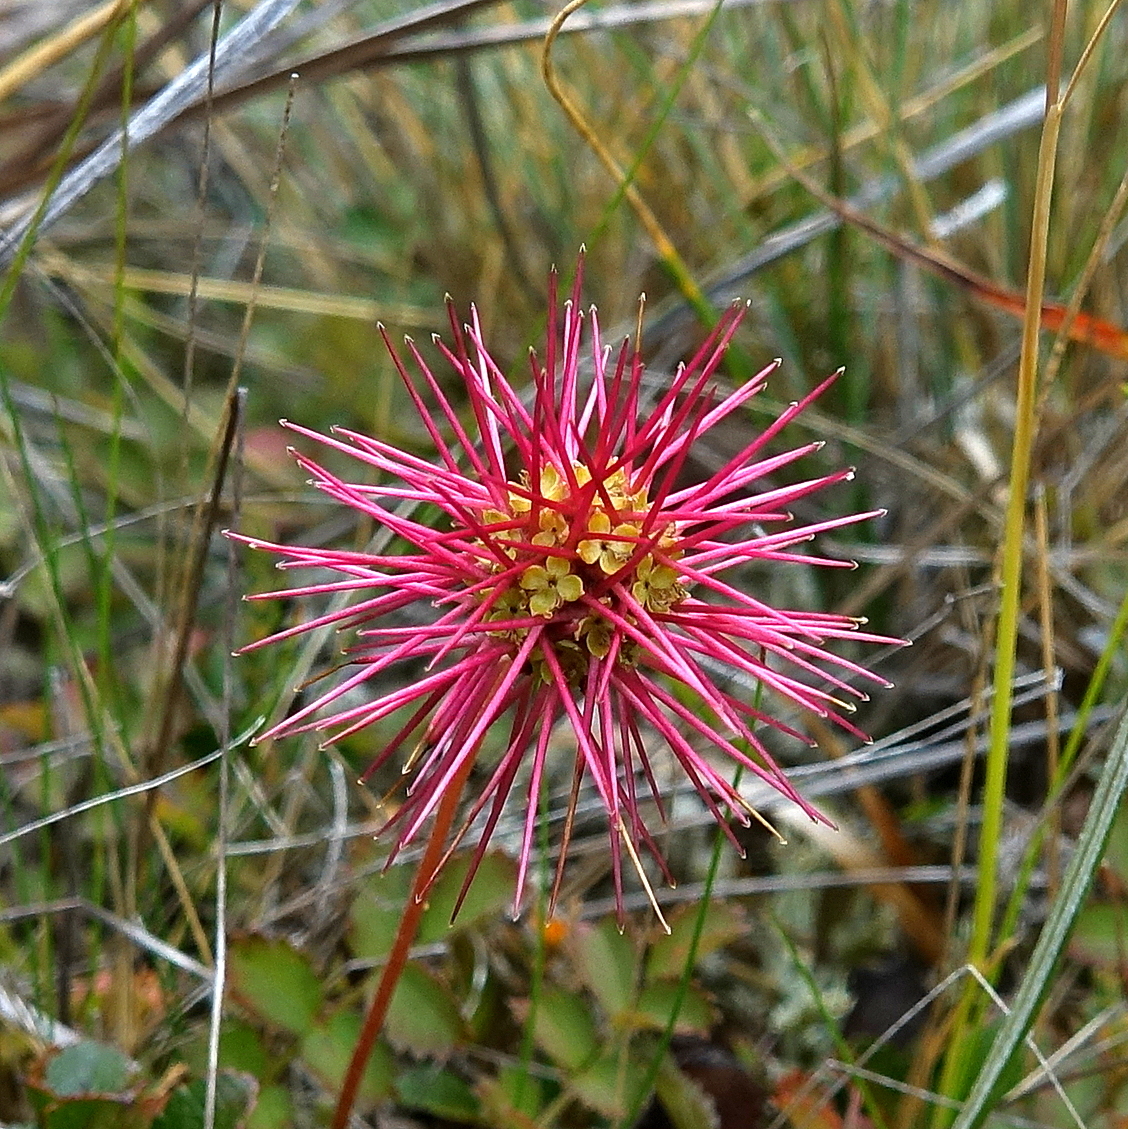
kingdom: Plantae
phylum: Tracheophyta
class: Magnoliopsida
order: Rosales
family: Rosaceae
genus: Acaena
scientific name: Acaena microphylla
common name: New zealand-bur
